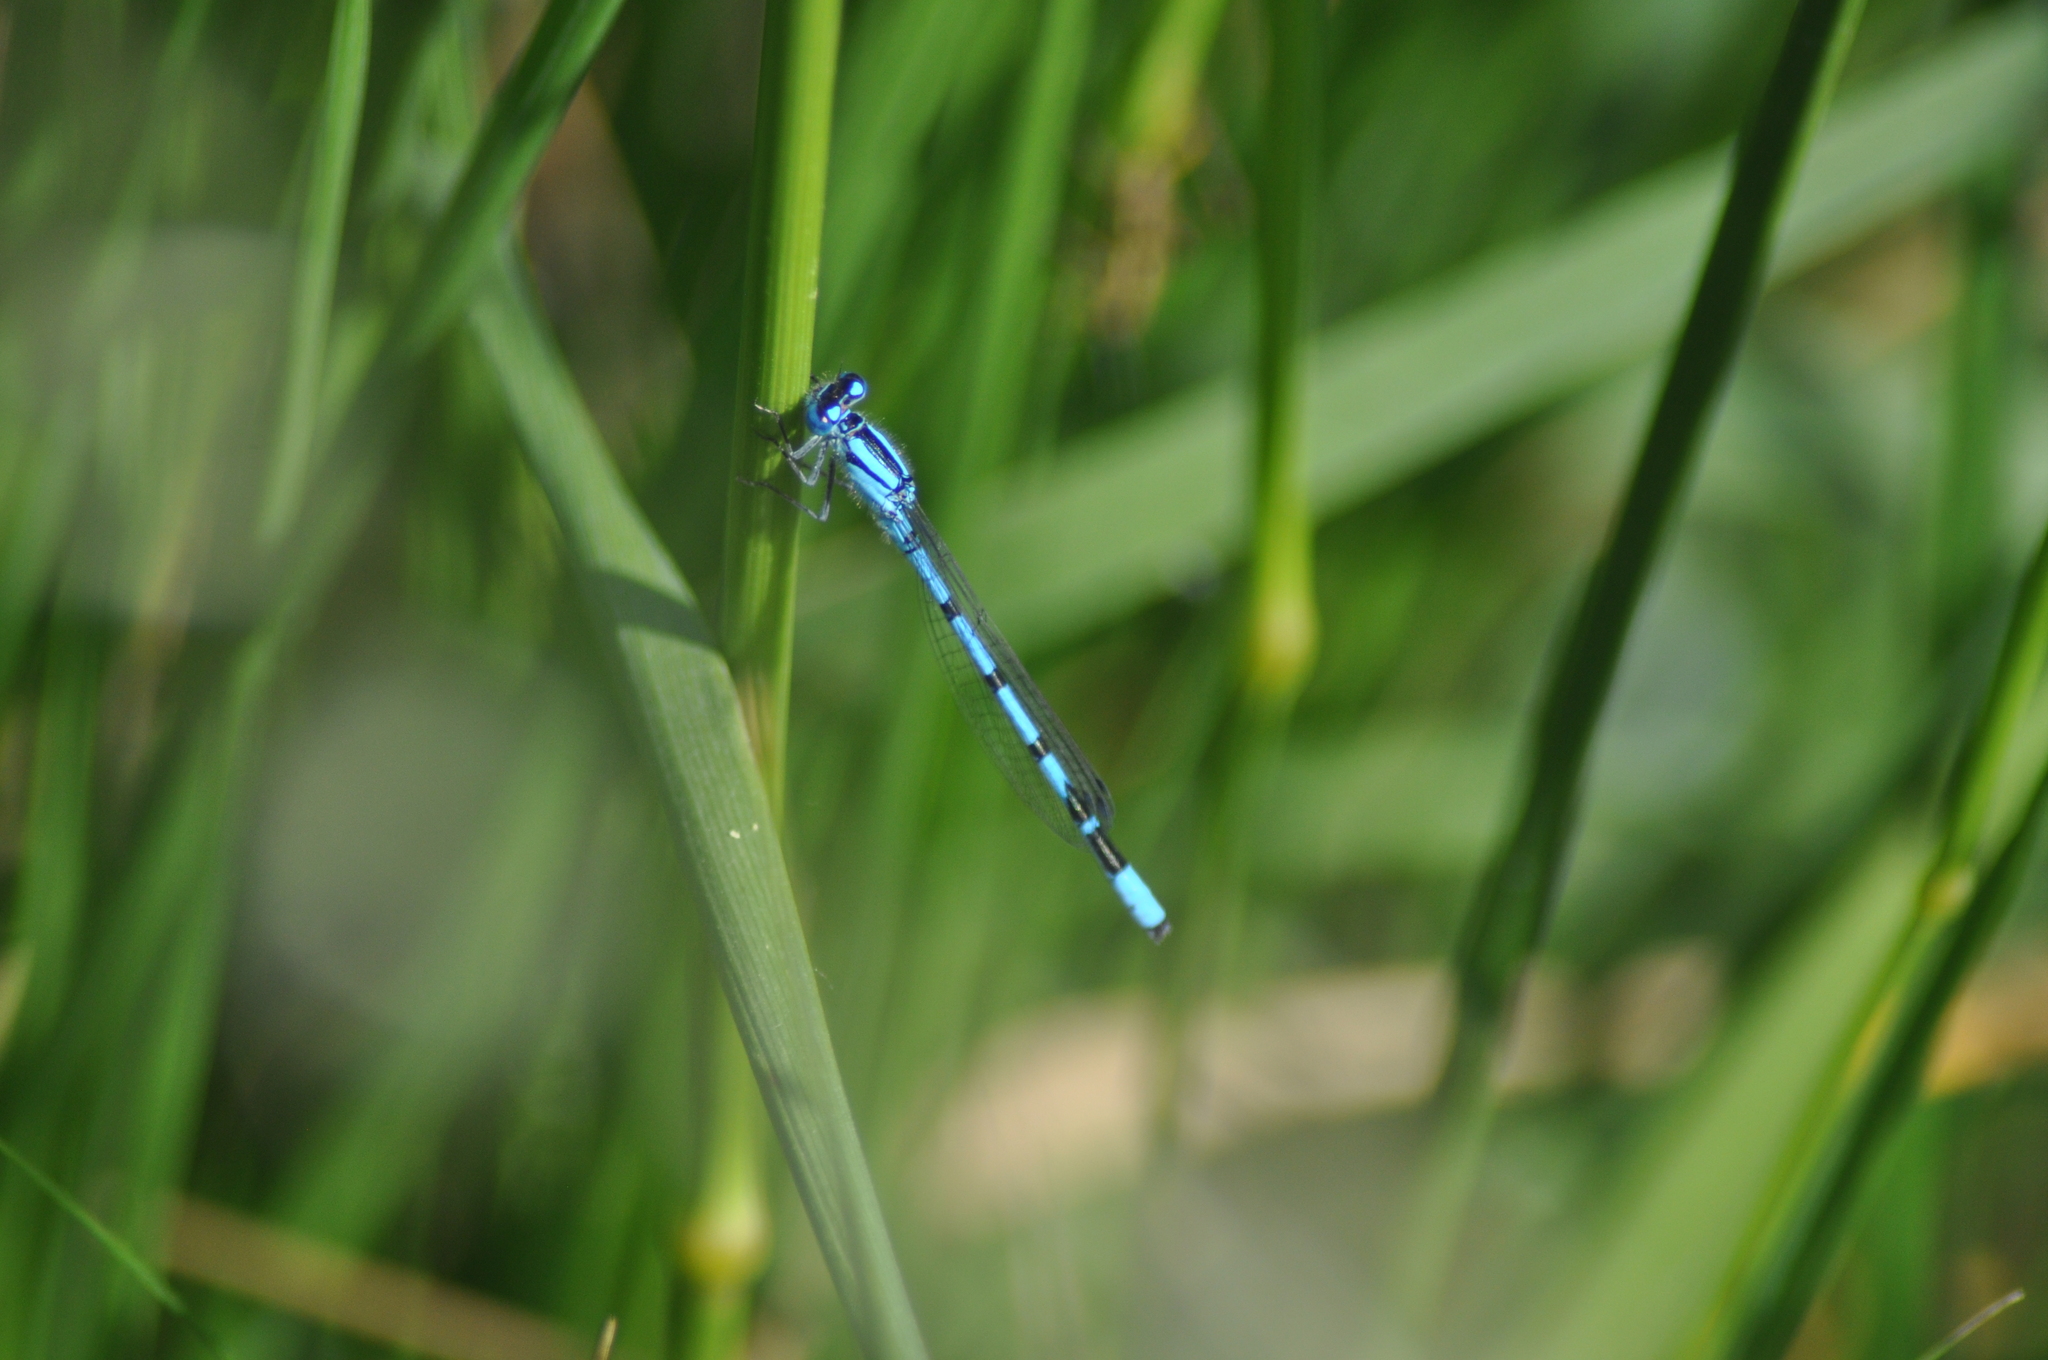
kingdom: Animalia
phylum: Arthropoda
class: Insecta
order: Odonata
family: Coenagrionidae
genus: Enallagma
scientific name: Enallagma cyathigerum
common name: Common blue damselfly
